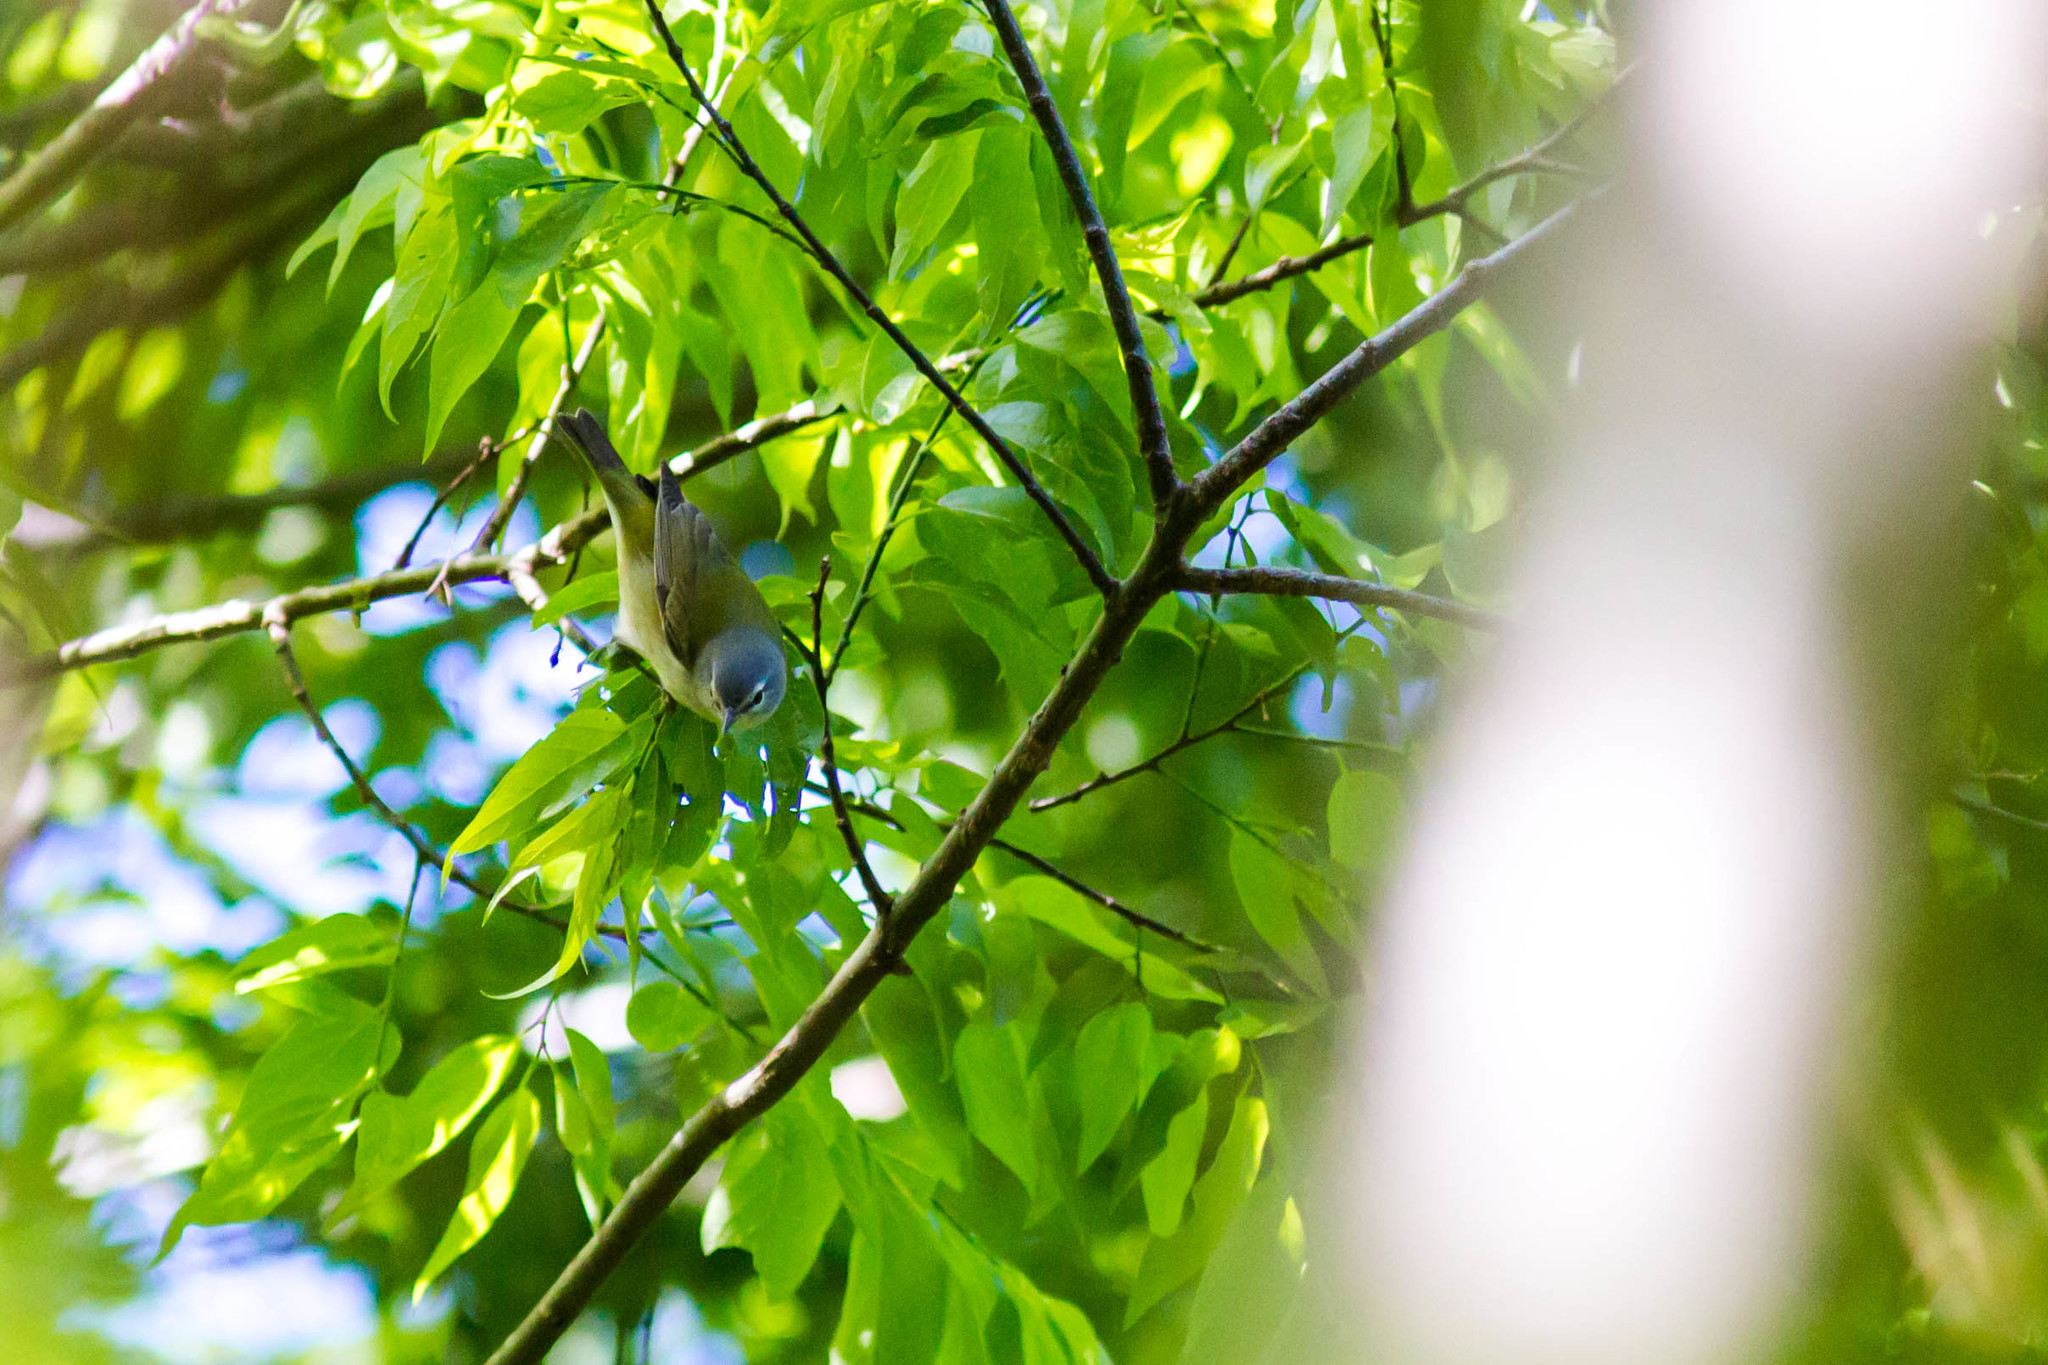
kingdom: Animalia
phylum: Chordata
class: Aves
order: Passeriformes
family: Parulidae
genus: Leiothlypis
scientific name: Leiothlypis peregrina
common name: Tennessee warbler
